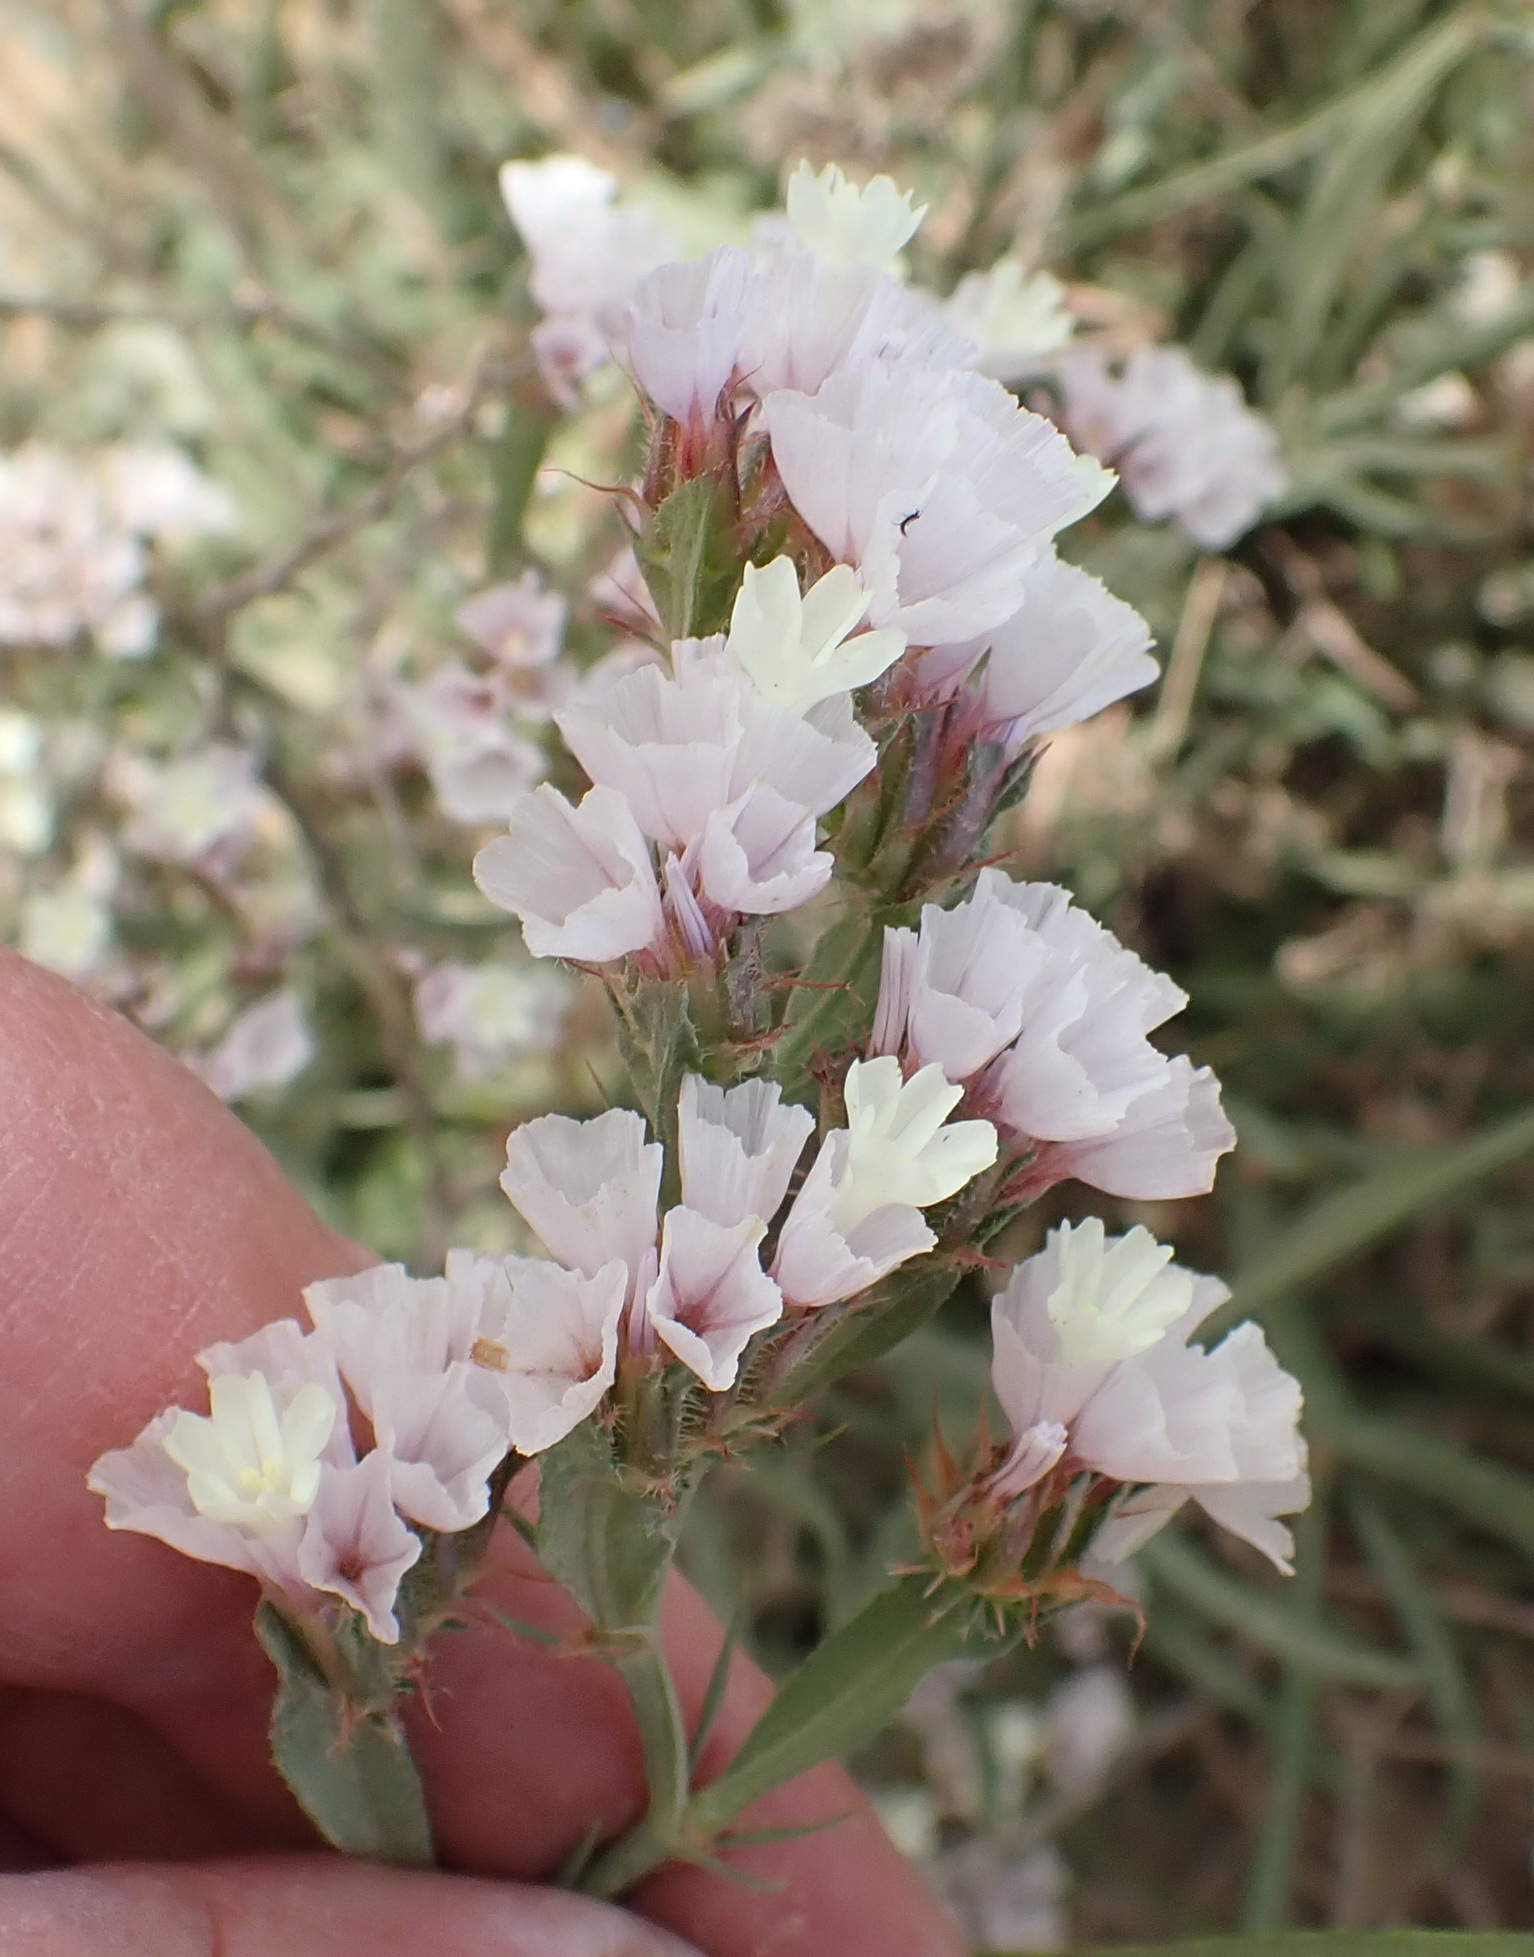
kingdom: Plantae
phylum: Tracheophyta
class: Magnoliopsida
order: Caryophyllales
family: Plumbaginaceae
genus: Limonium
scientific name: Limonium sinuatum
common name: Statice
